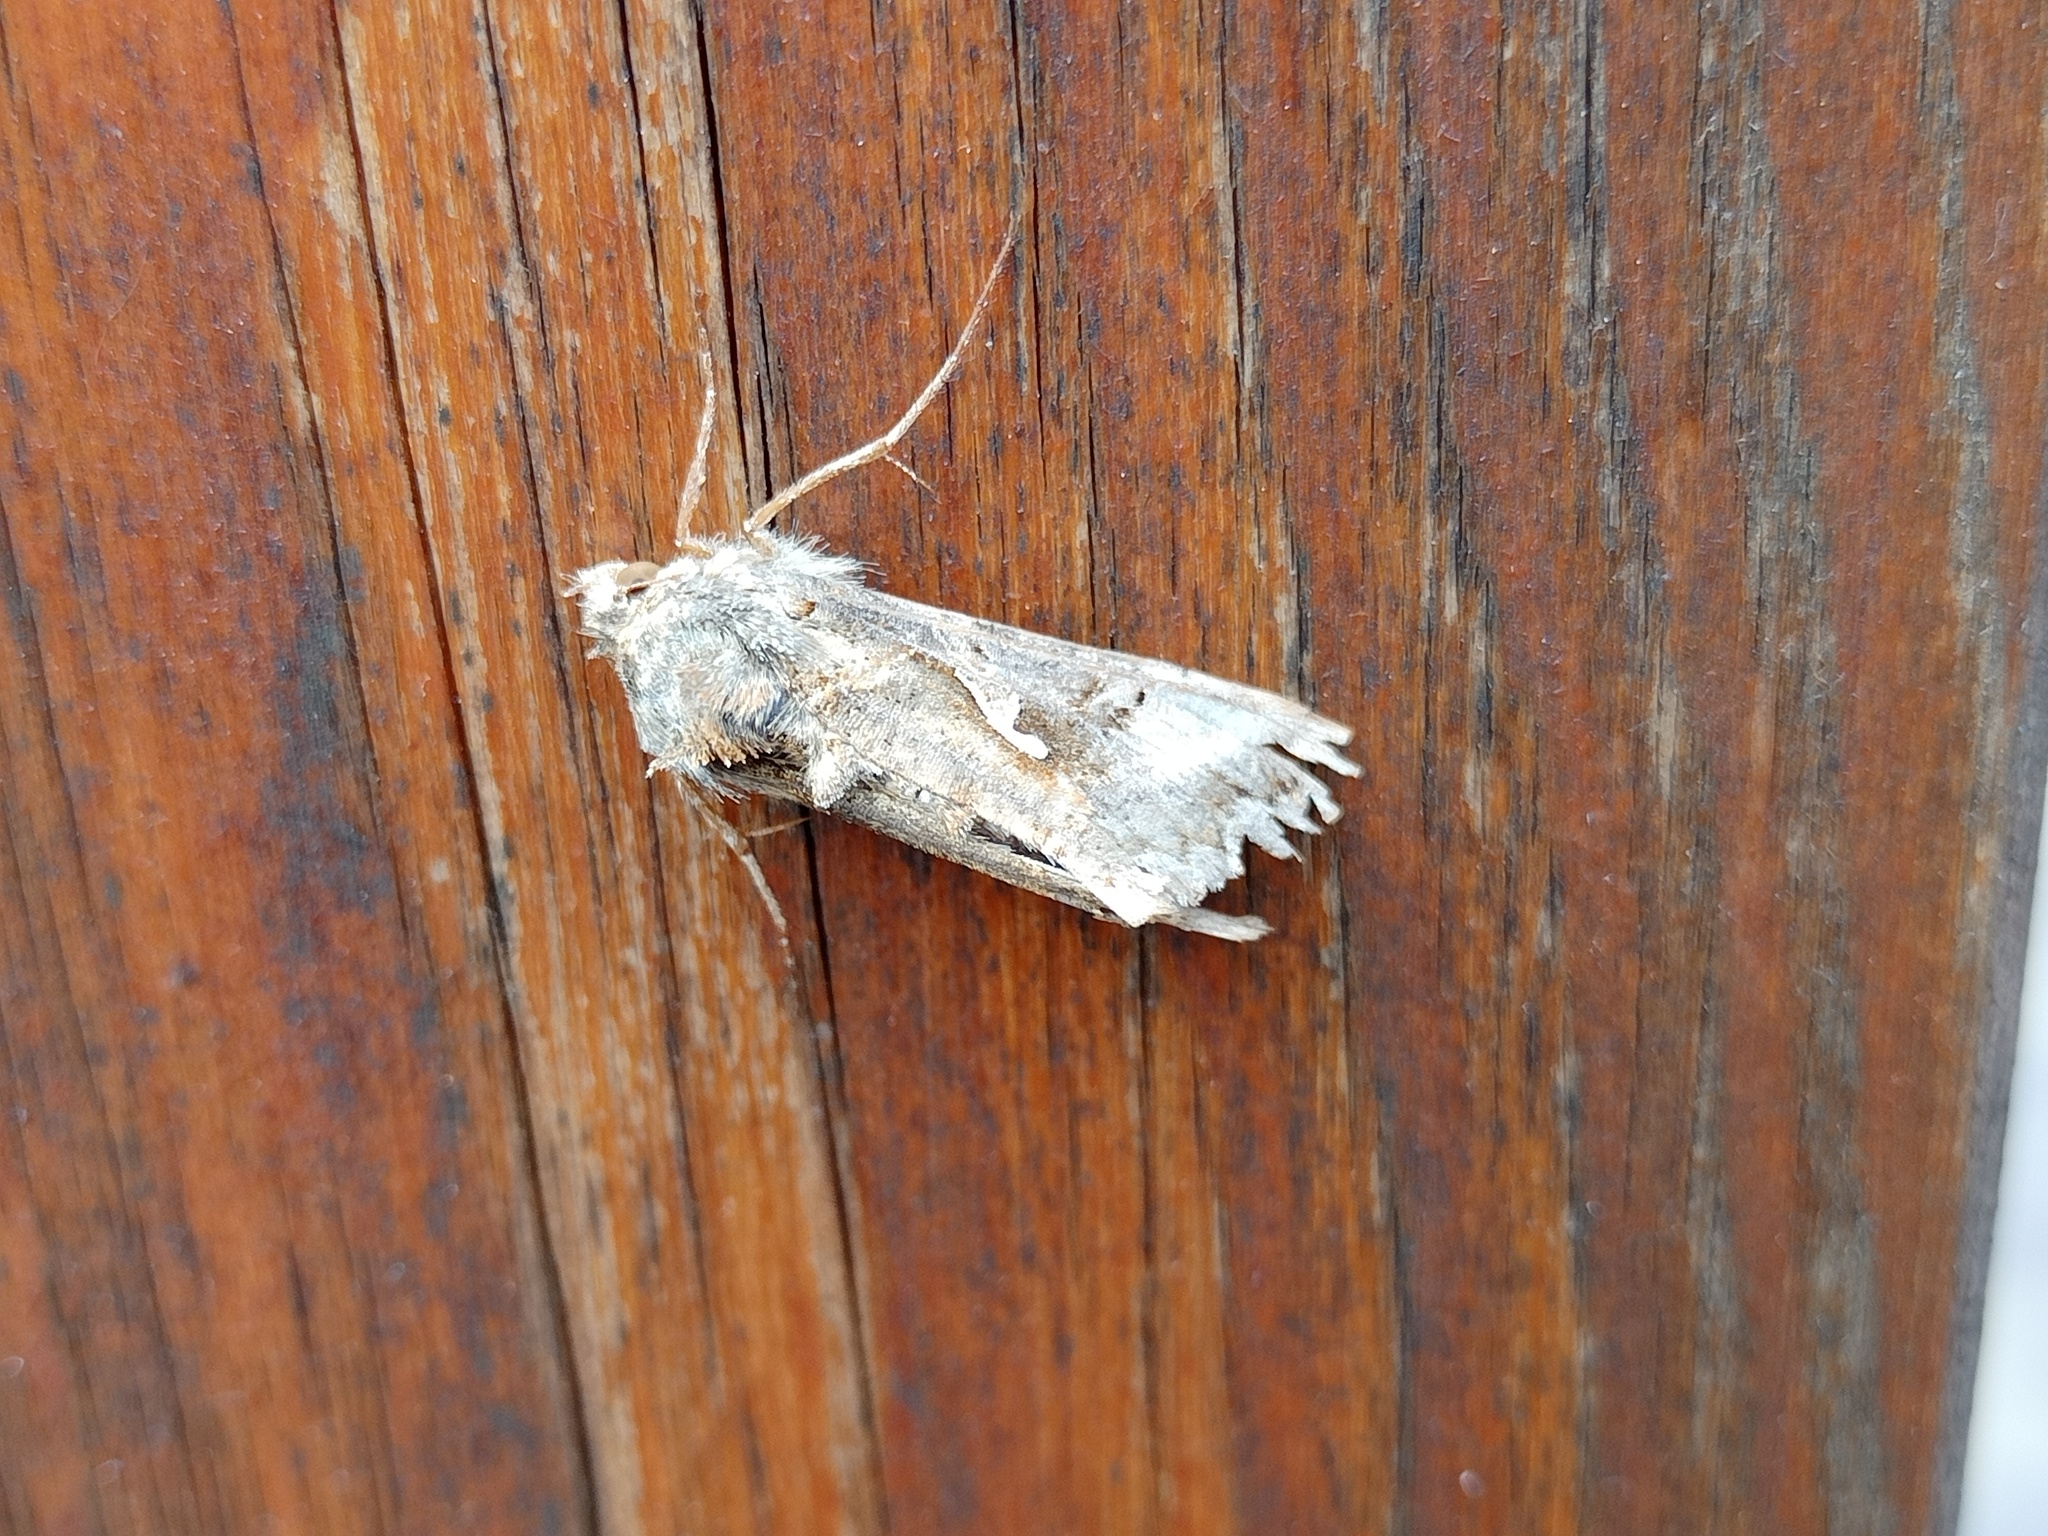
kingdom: Animalia
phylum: Arthropoda
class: Insecta
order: Lepidoptera
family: Noctuidae
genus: Autographa
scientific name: Autographa gamma
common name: Silver y
